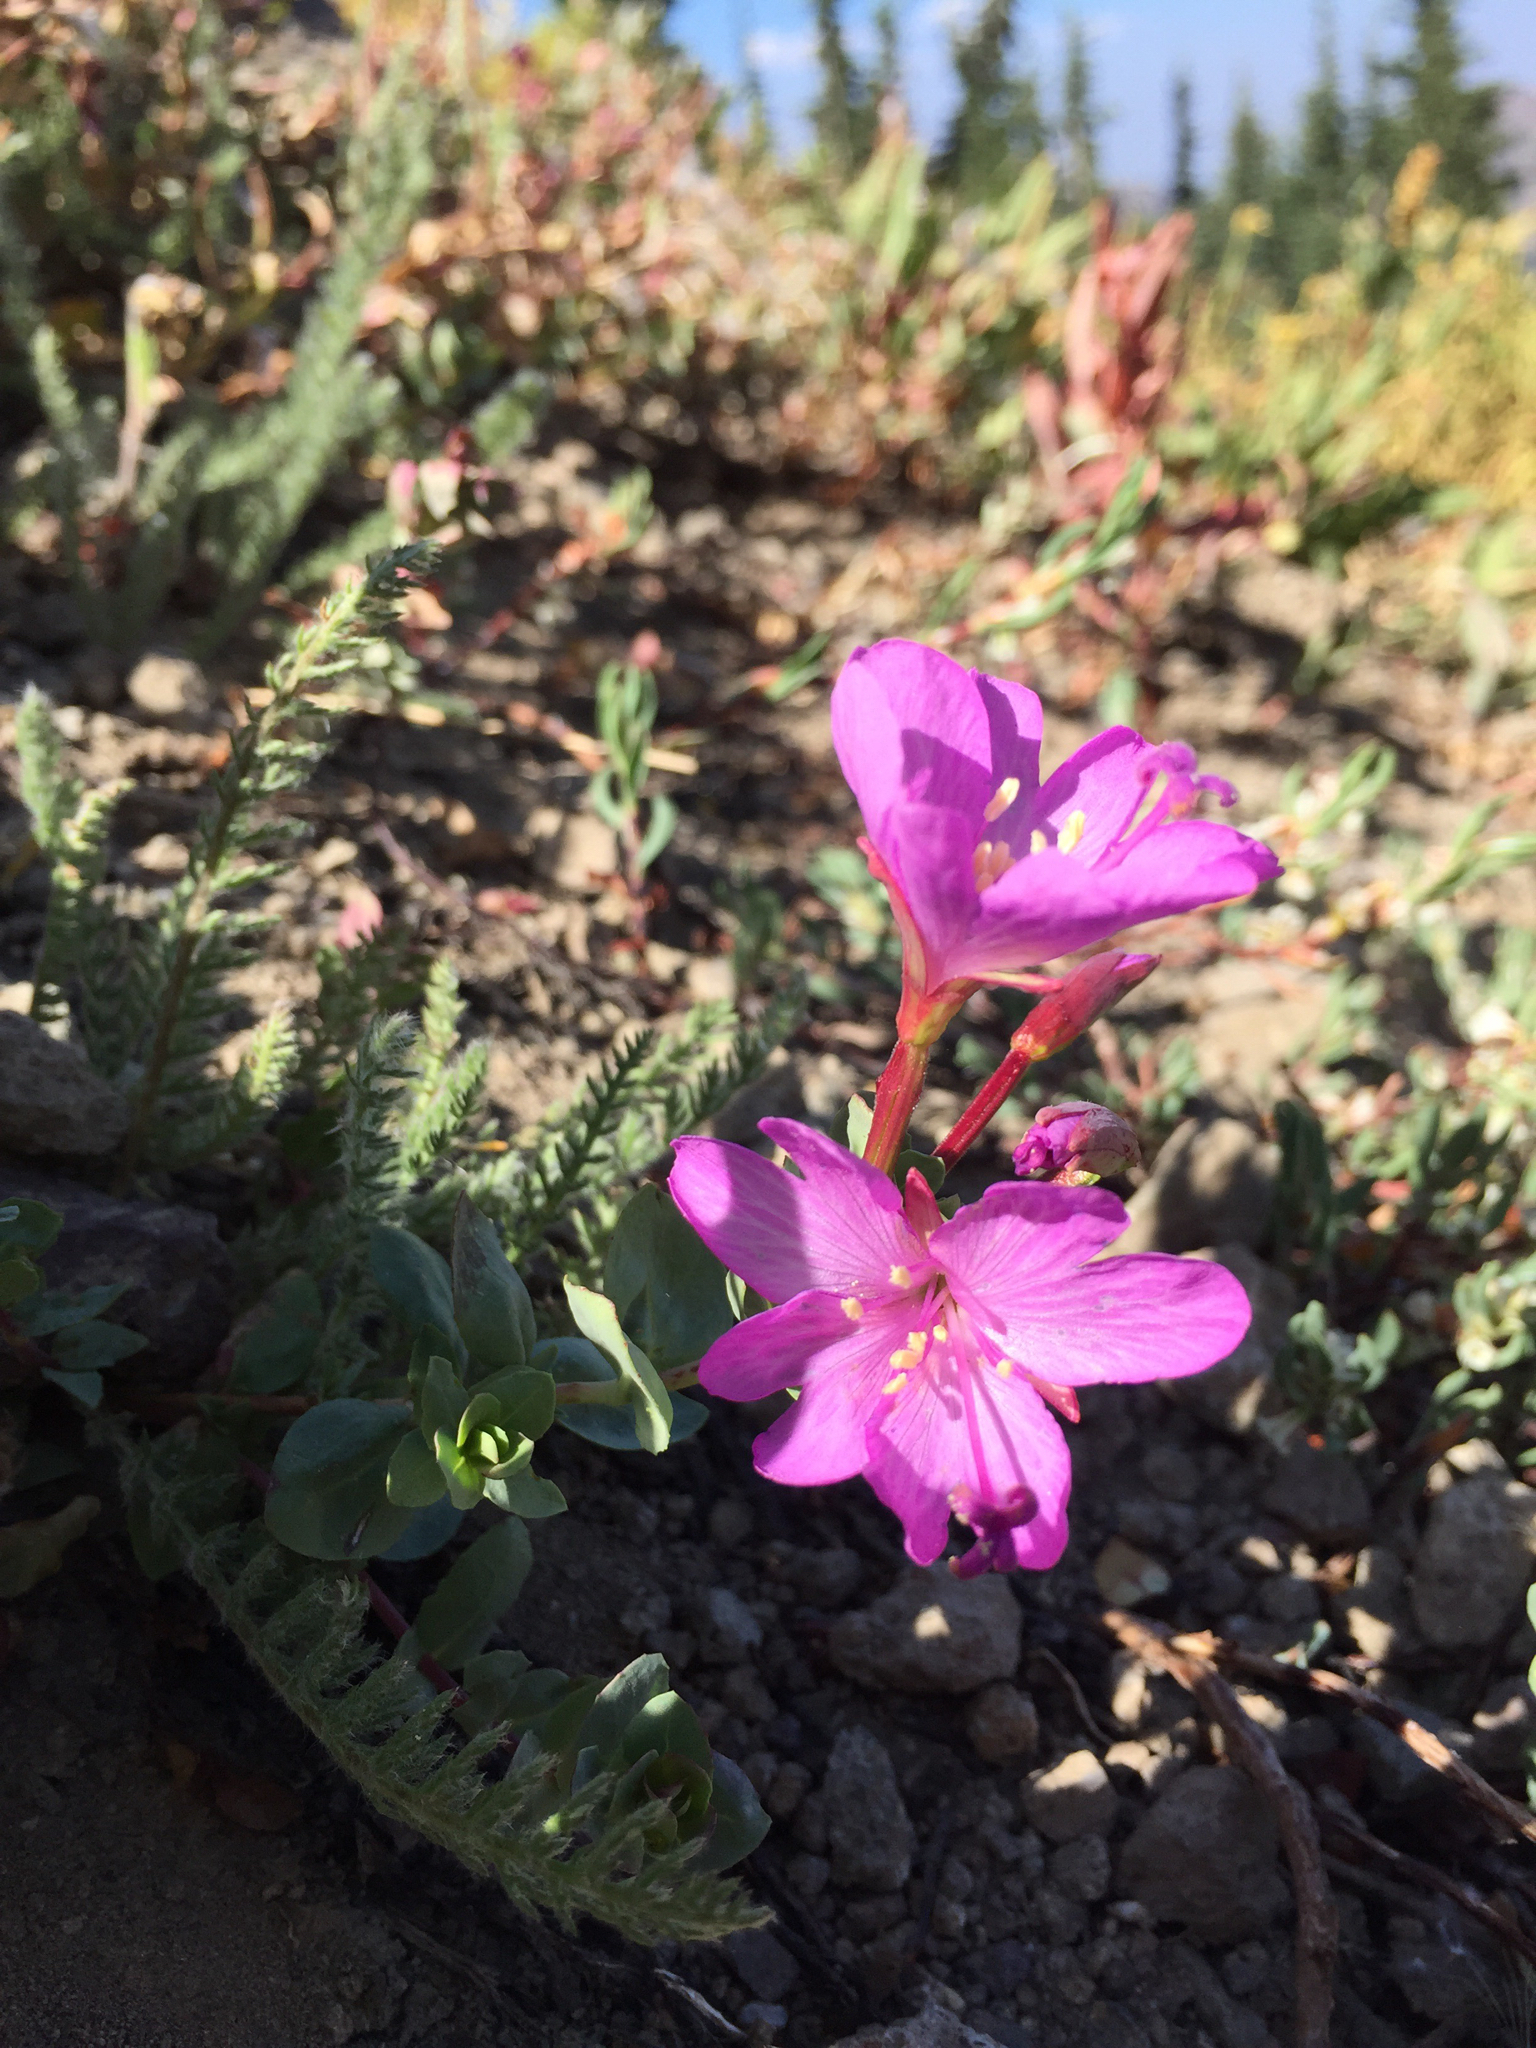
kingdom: Plantae
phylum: Tracheophyta
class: Magnoliopsida
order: Myrtales
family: Onagraceae
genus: Epilobium
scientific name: Epilobium obcordatum
